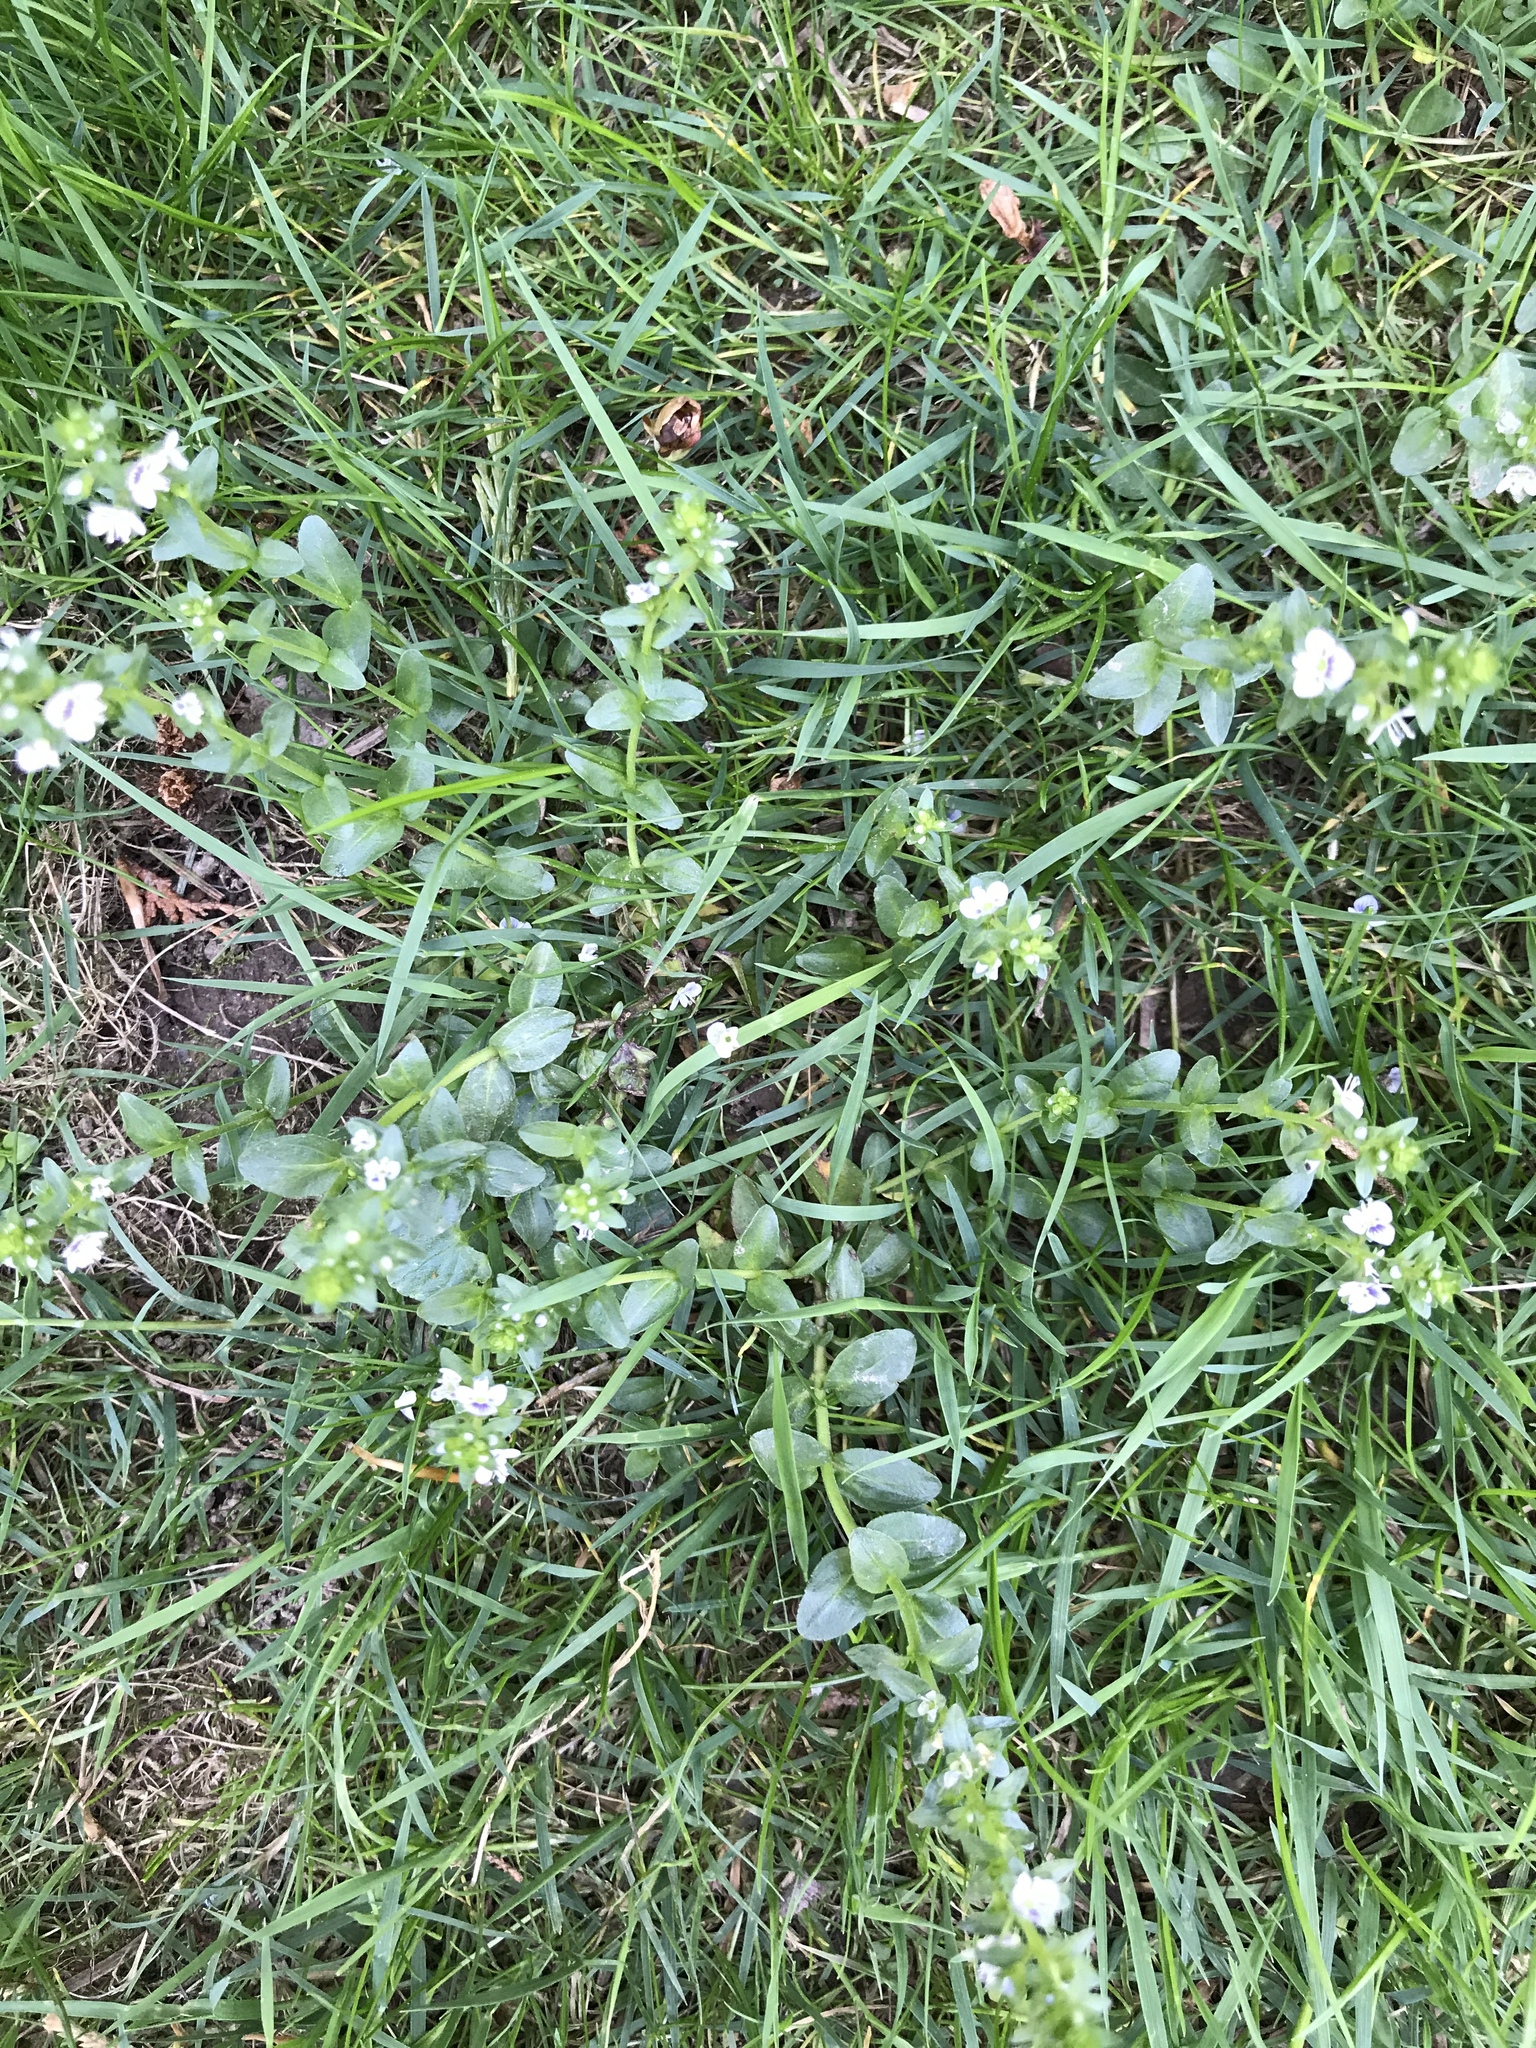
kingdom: Plantae
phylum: Tracheophyta
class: Magnoliopsida
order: Lamiales
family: Plantaginaceae
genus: Veronica
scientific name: Veronica serpyllifolia
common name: Thyme-leaved speedwell
